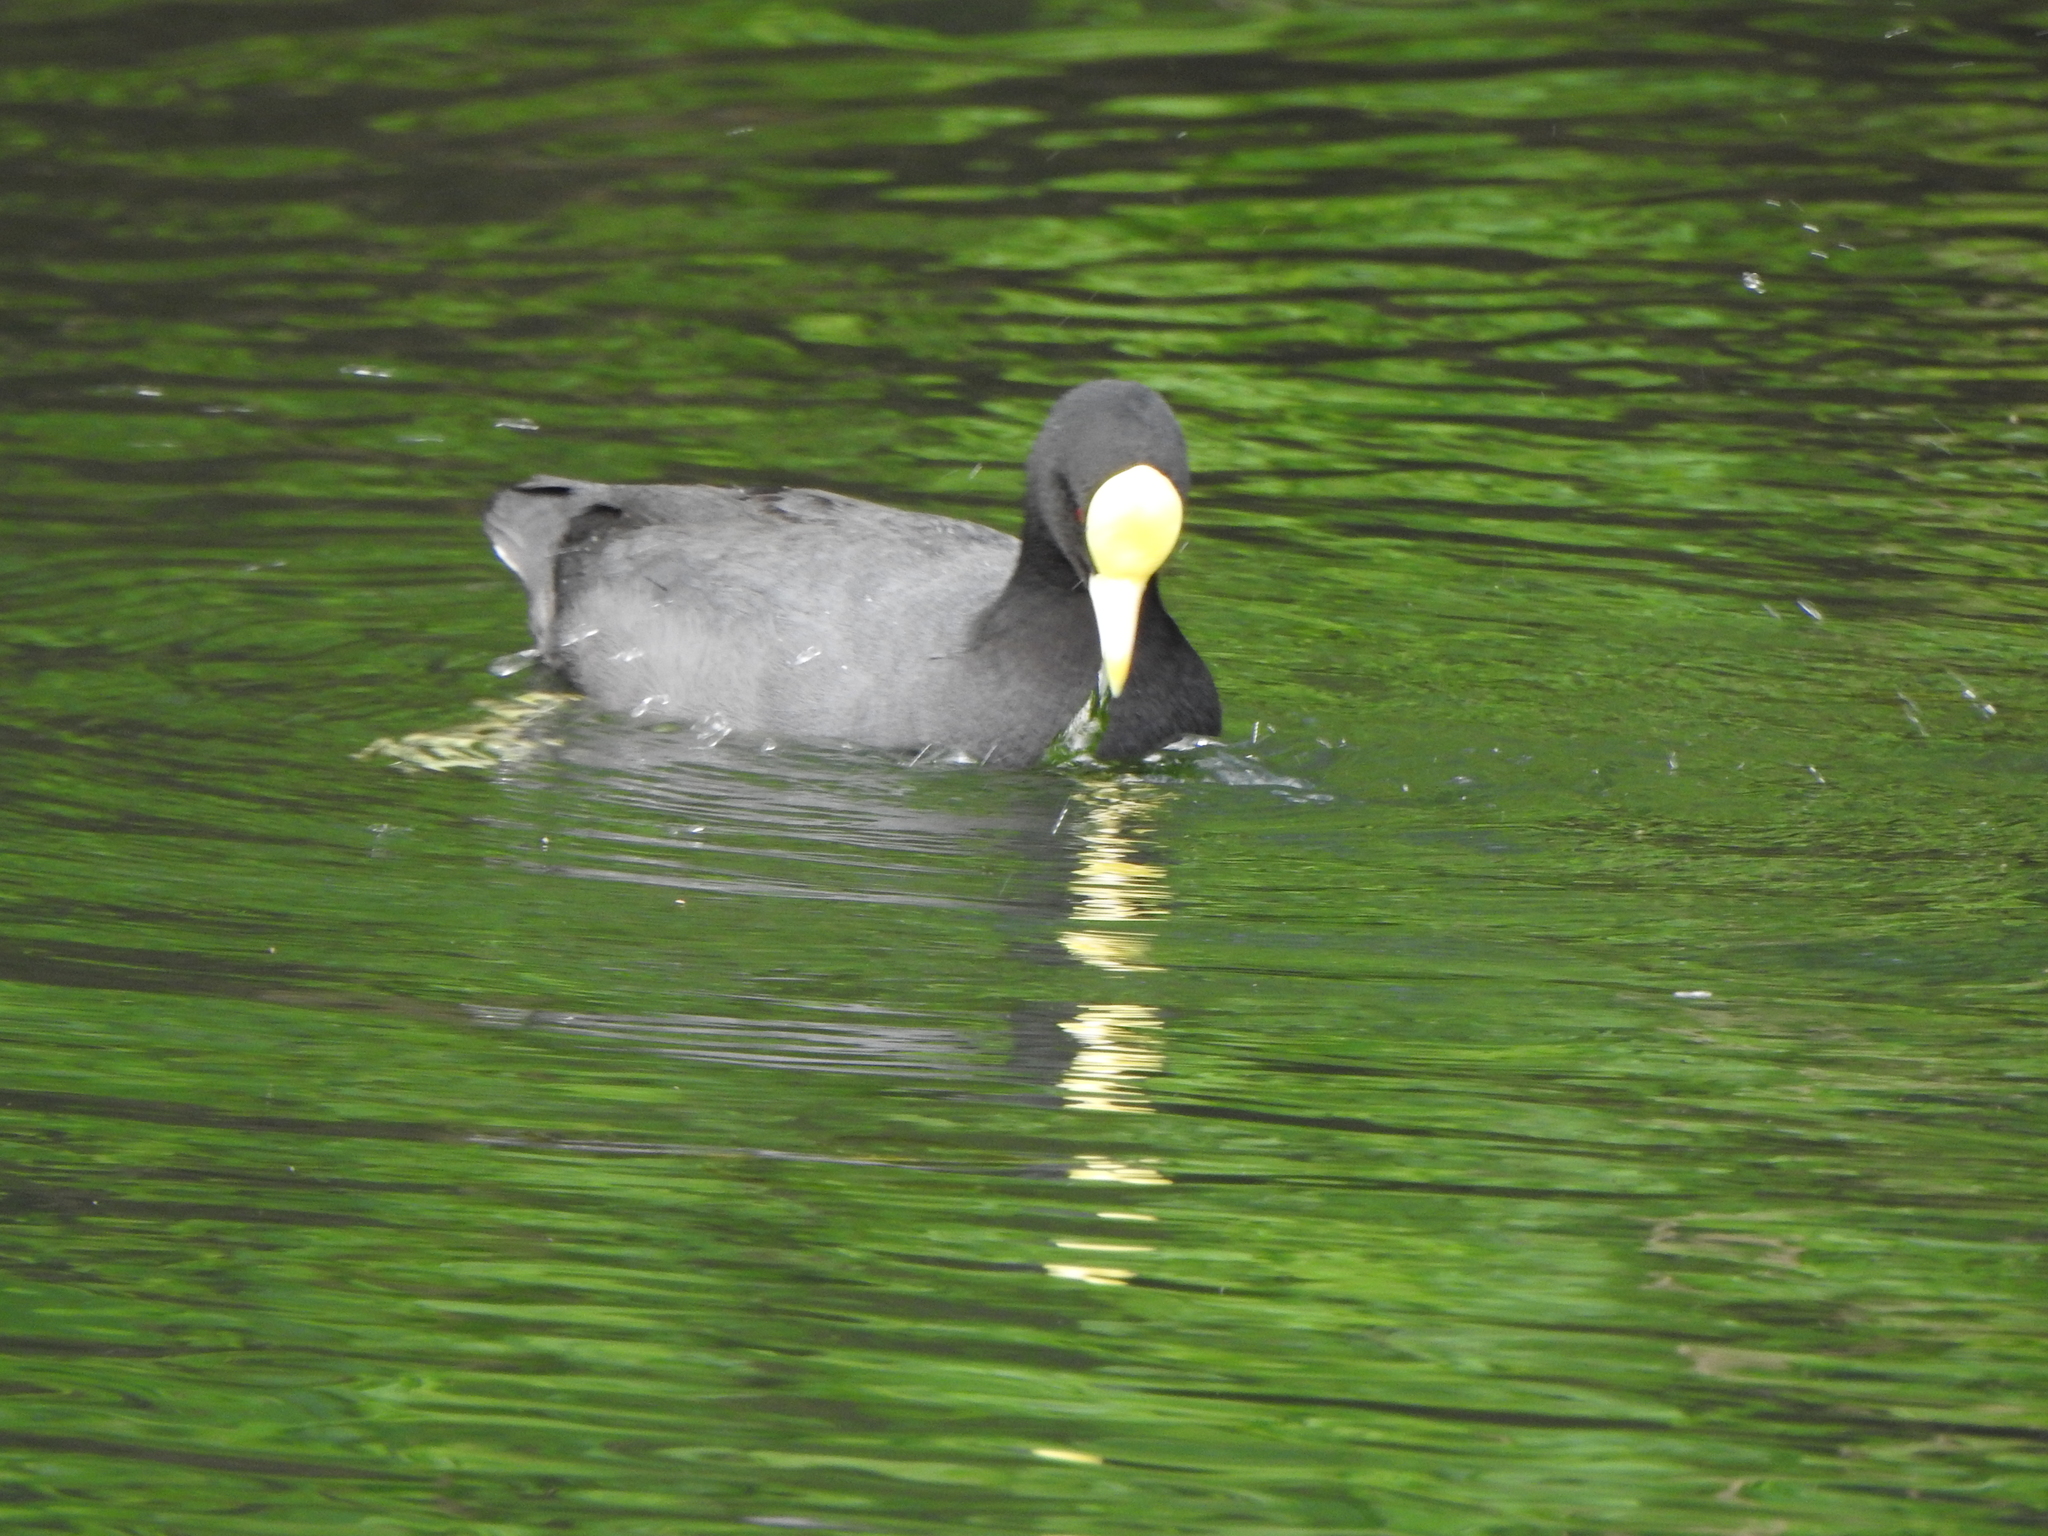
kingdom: Animalia
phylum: Chordata
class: Aves
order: Gruiformes
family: Rallidae
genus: Fulica
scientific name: Fulica leucoptera
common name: White-winged coot
